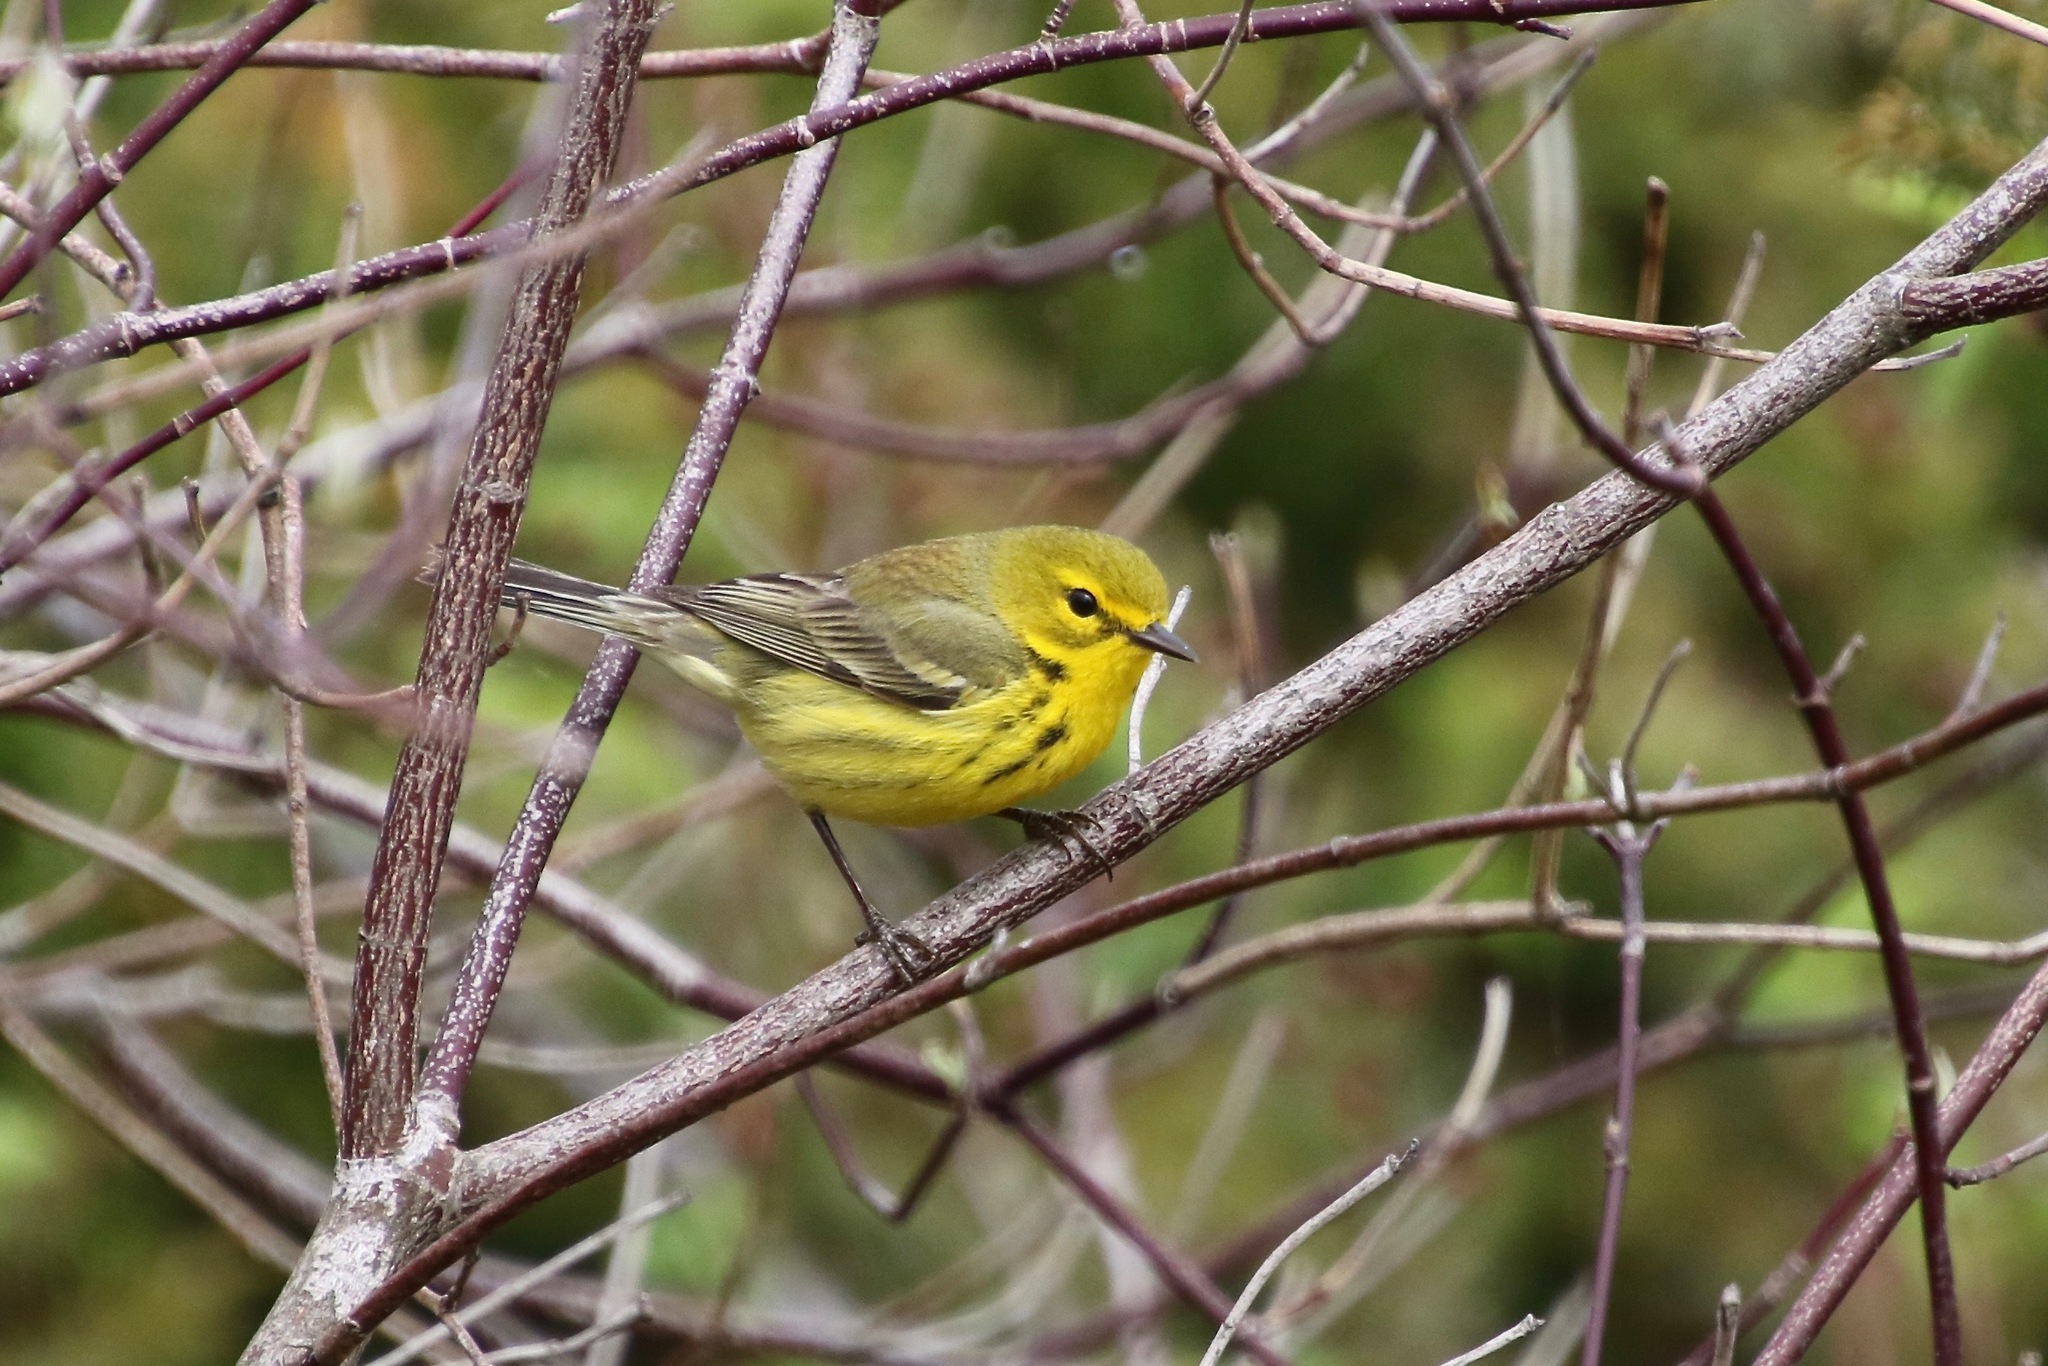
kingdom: Animalia
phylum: Chordata
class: Aves
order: Passeriformes
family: Parulidae
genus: Setophaga
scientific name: Setophaga discolor
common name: Prairie warbler
